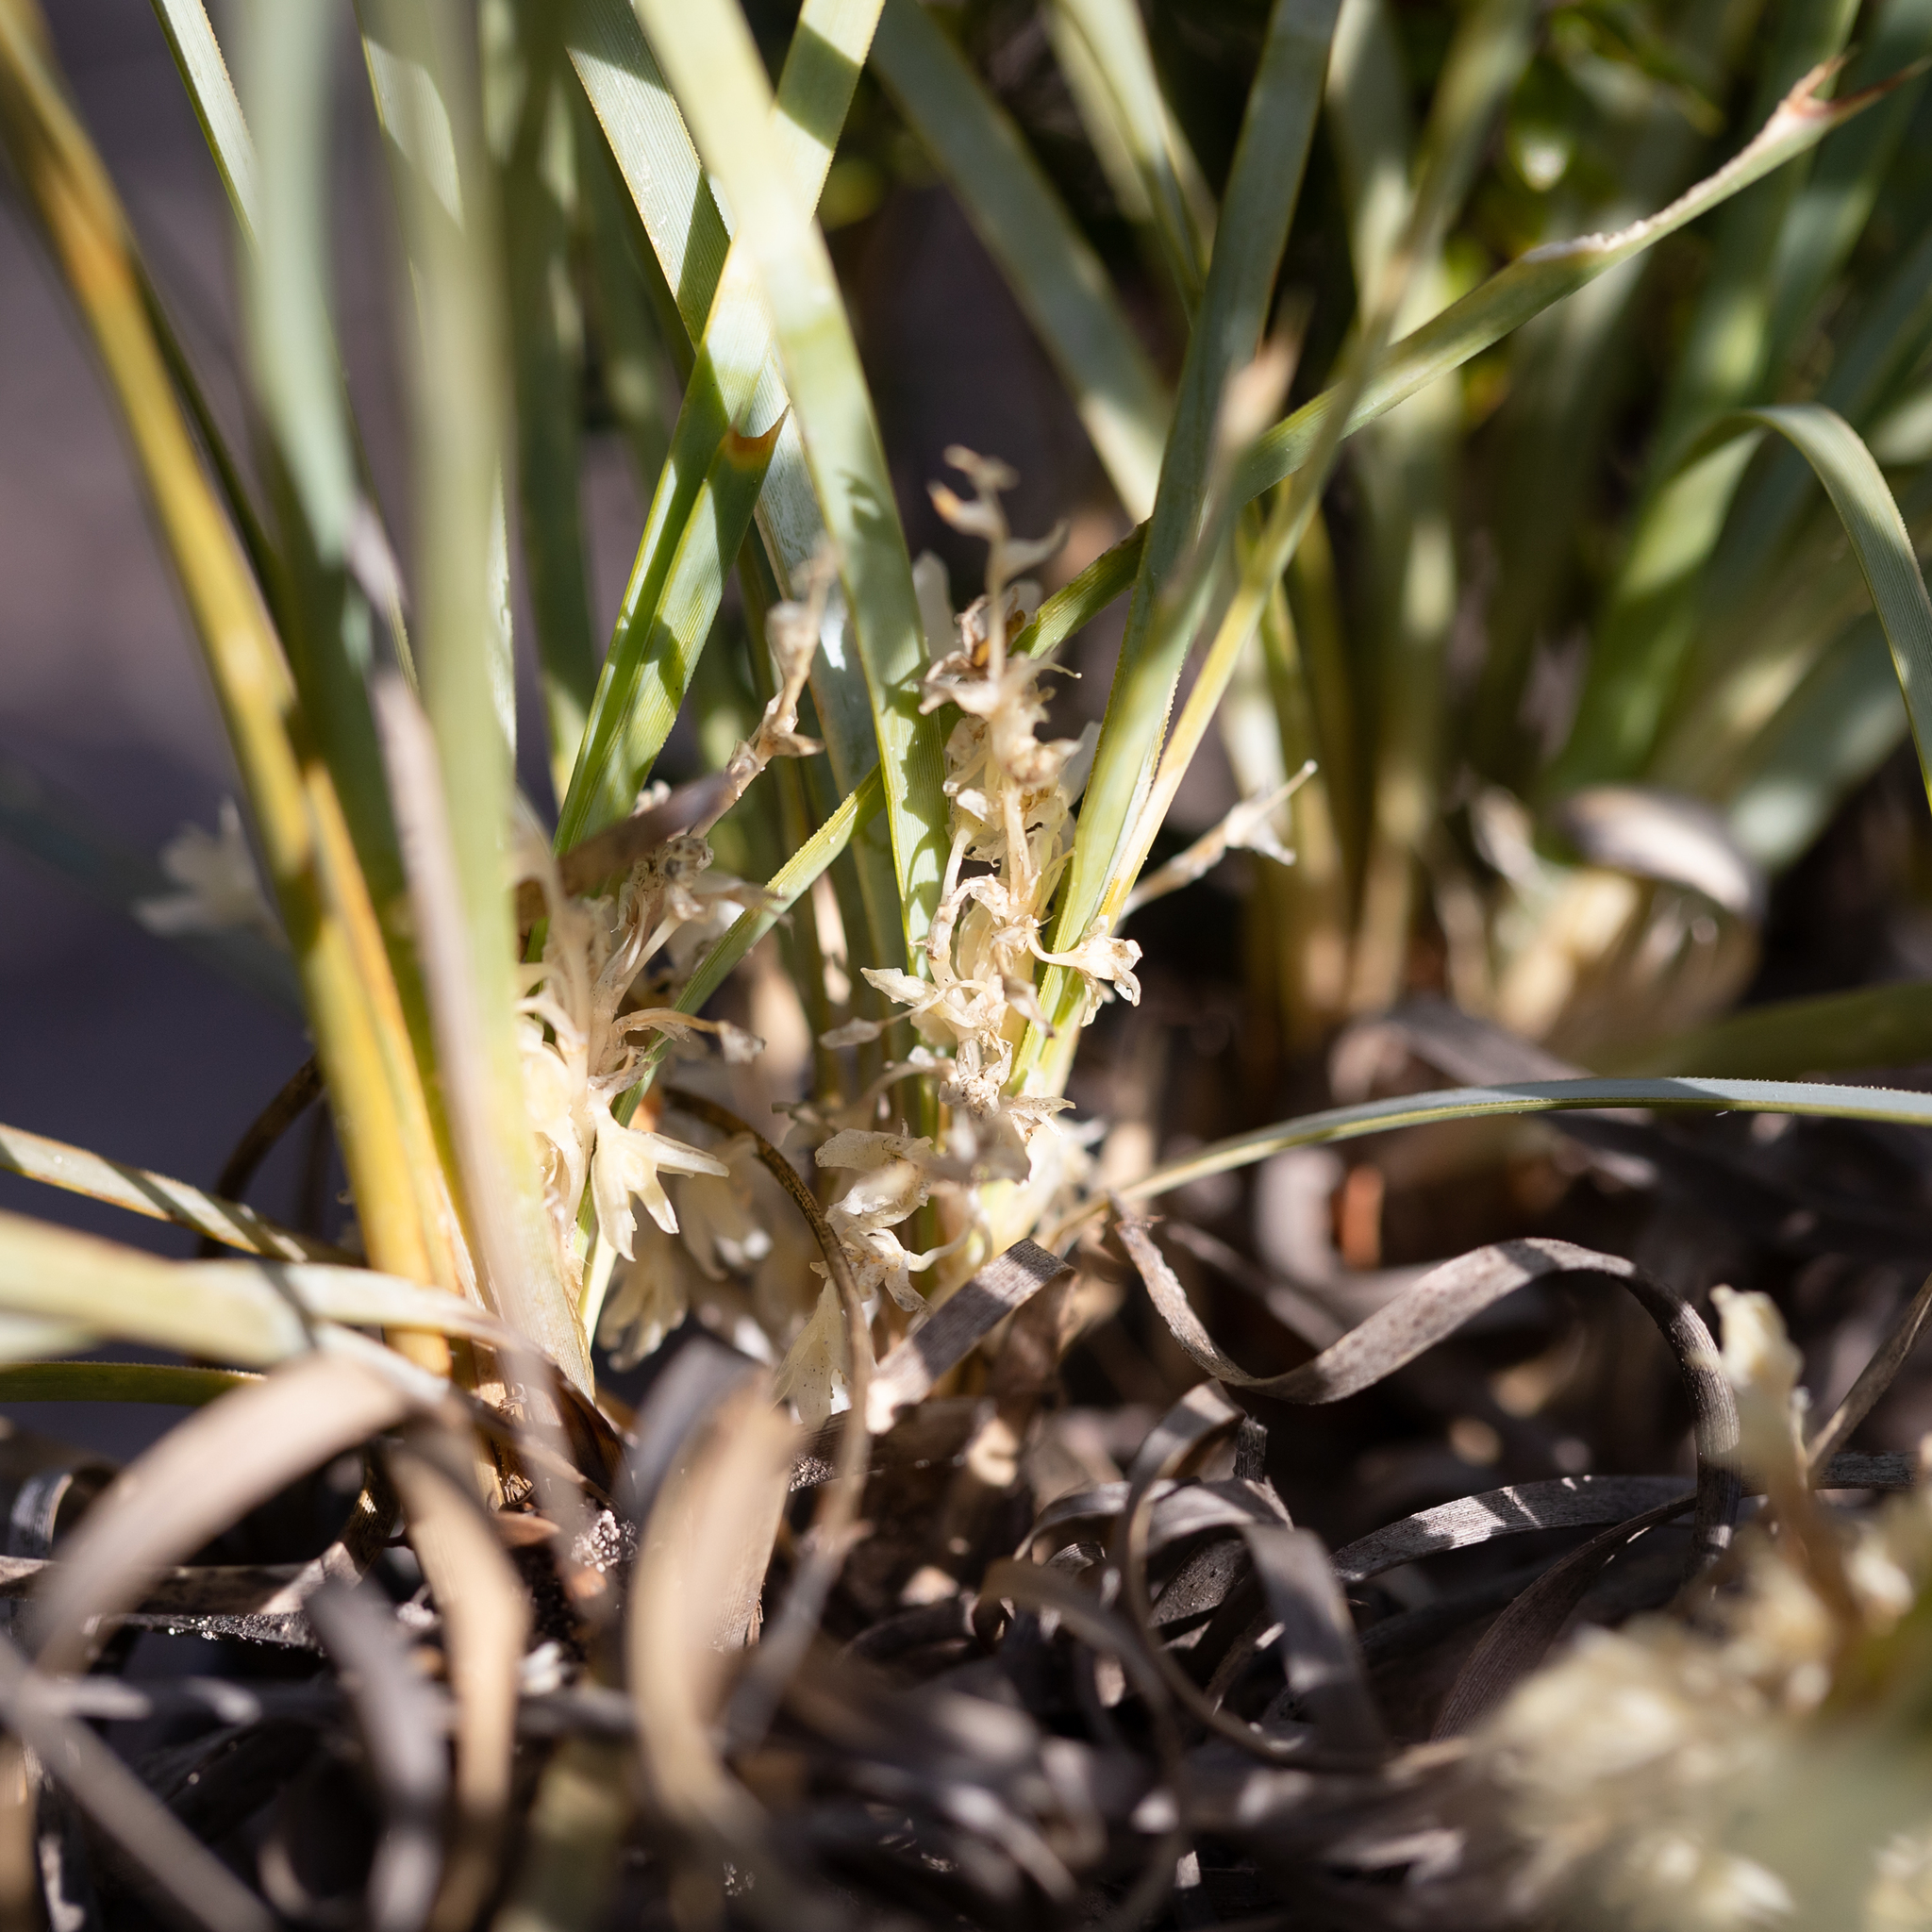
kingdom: Plantae
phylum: Tracheophyta
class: Liliopsida
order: Asparagales
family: Asparagaceae
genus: Lomandra
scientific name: Lomandra effusa
